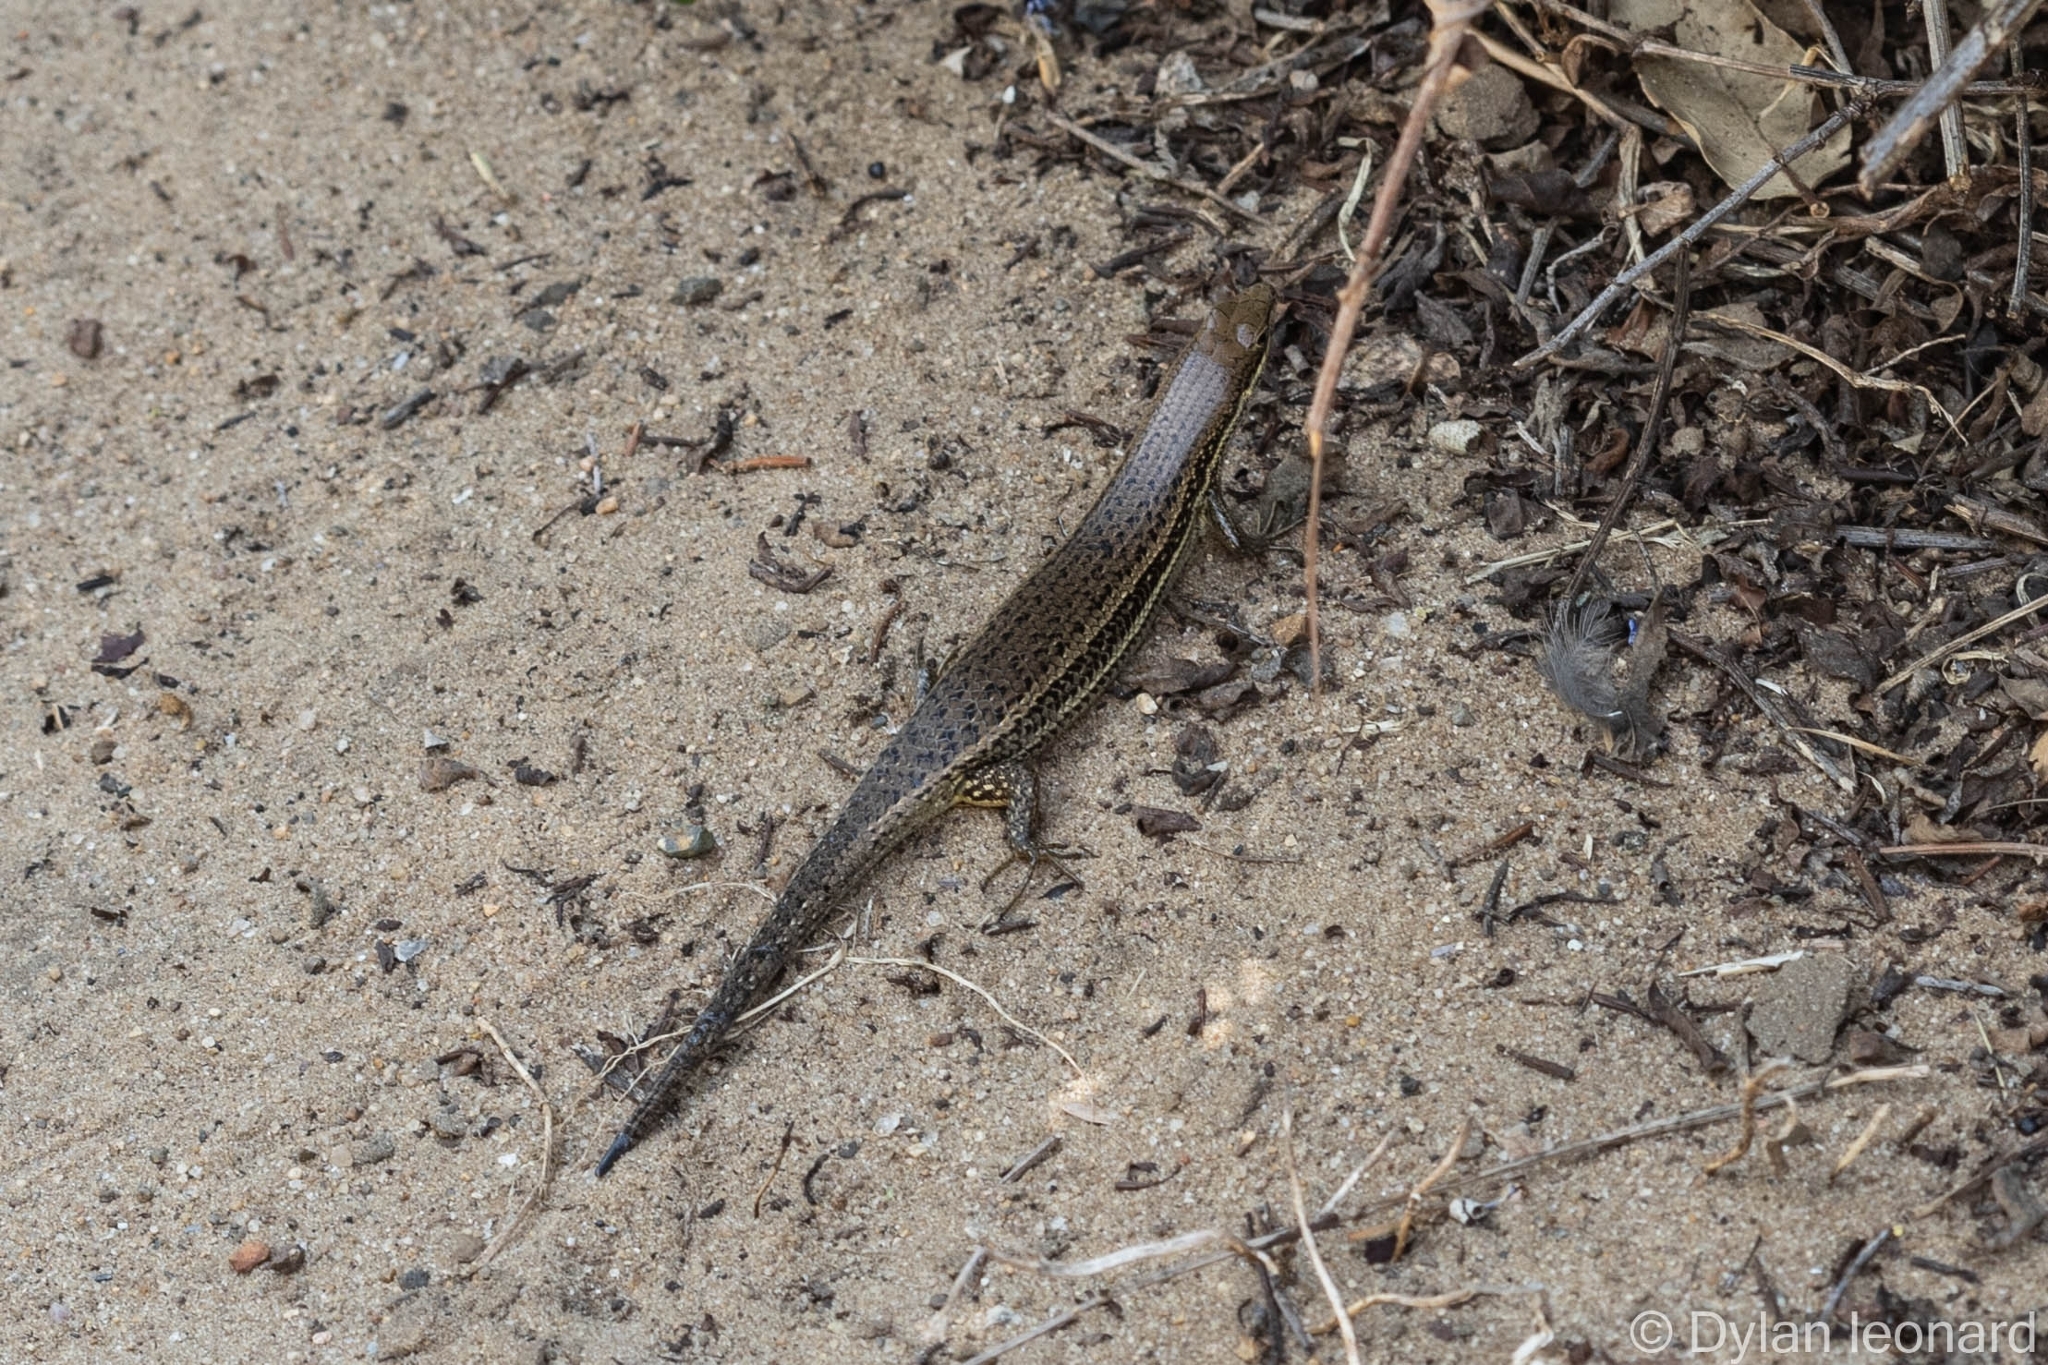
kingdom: Animalia
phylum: Chordata
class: Squamata
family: Scincidae
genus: Trachylepis
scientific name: Trachylepis depressa
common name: Eastern coastal skink
